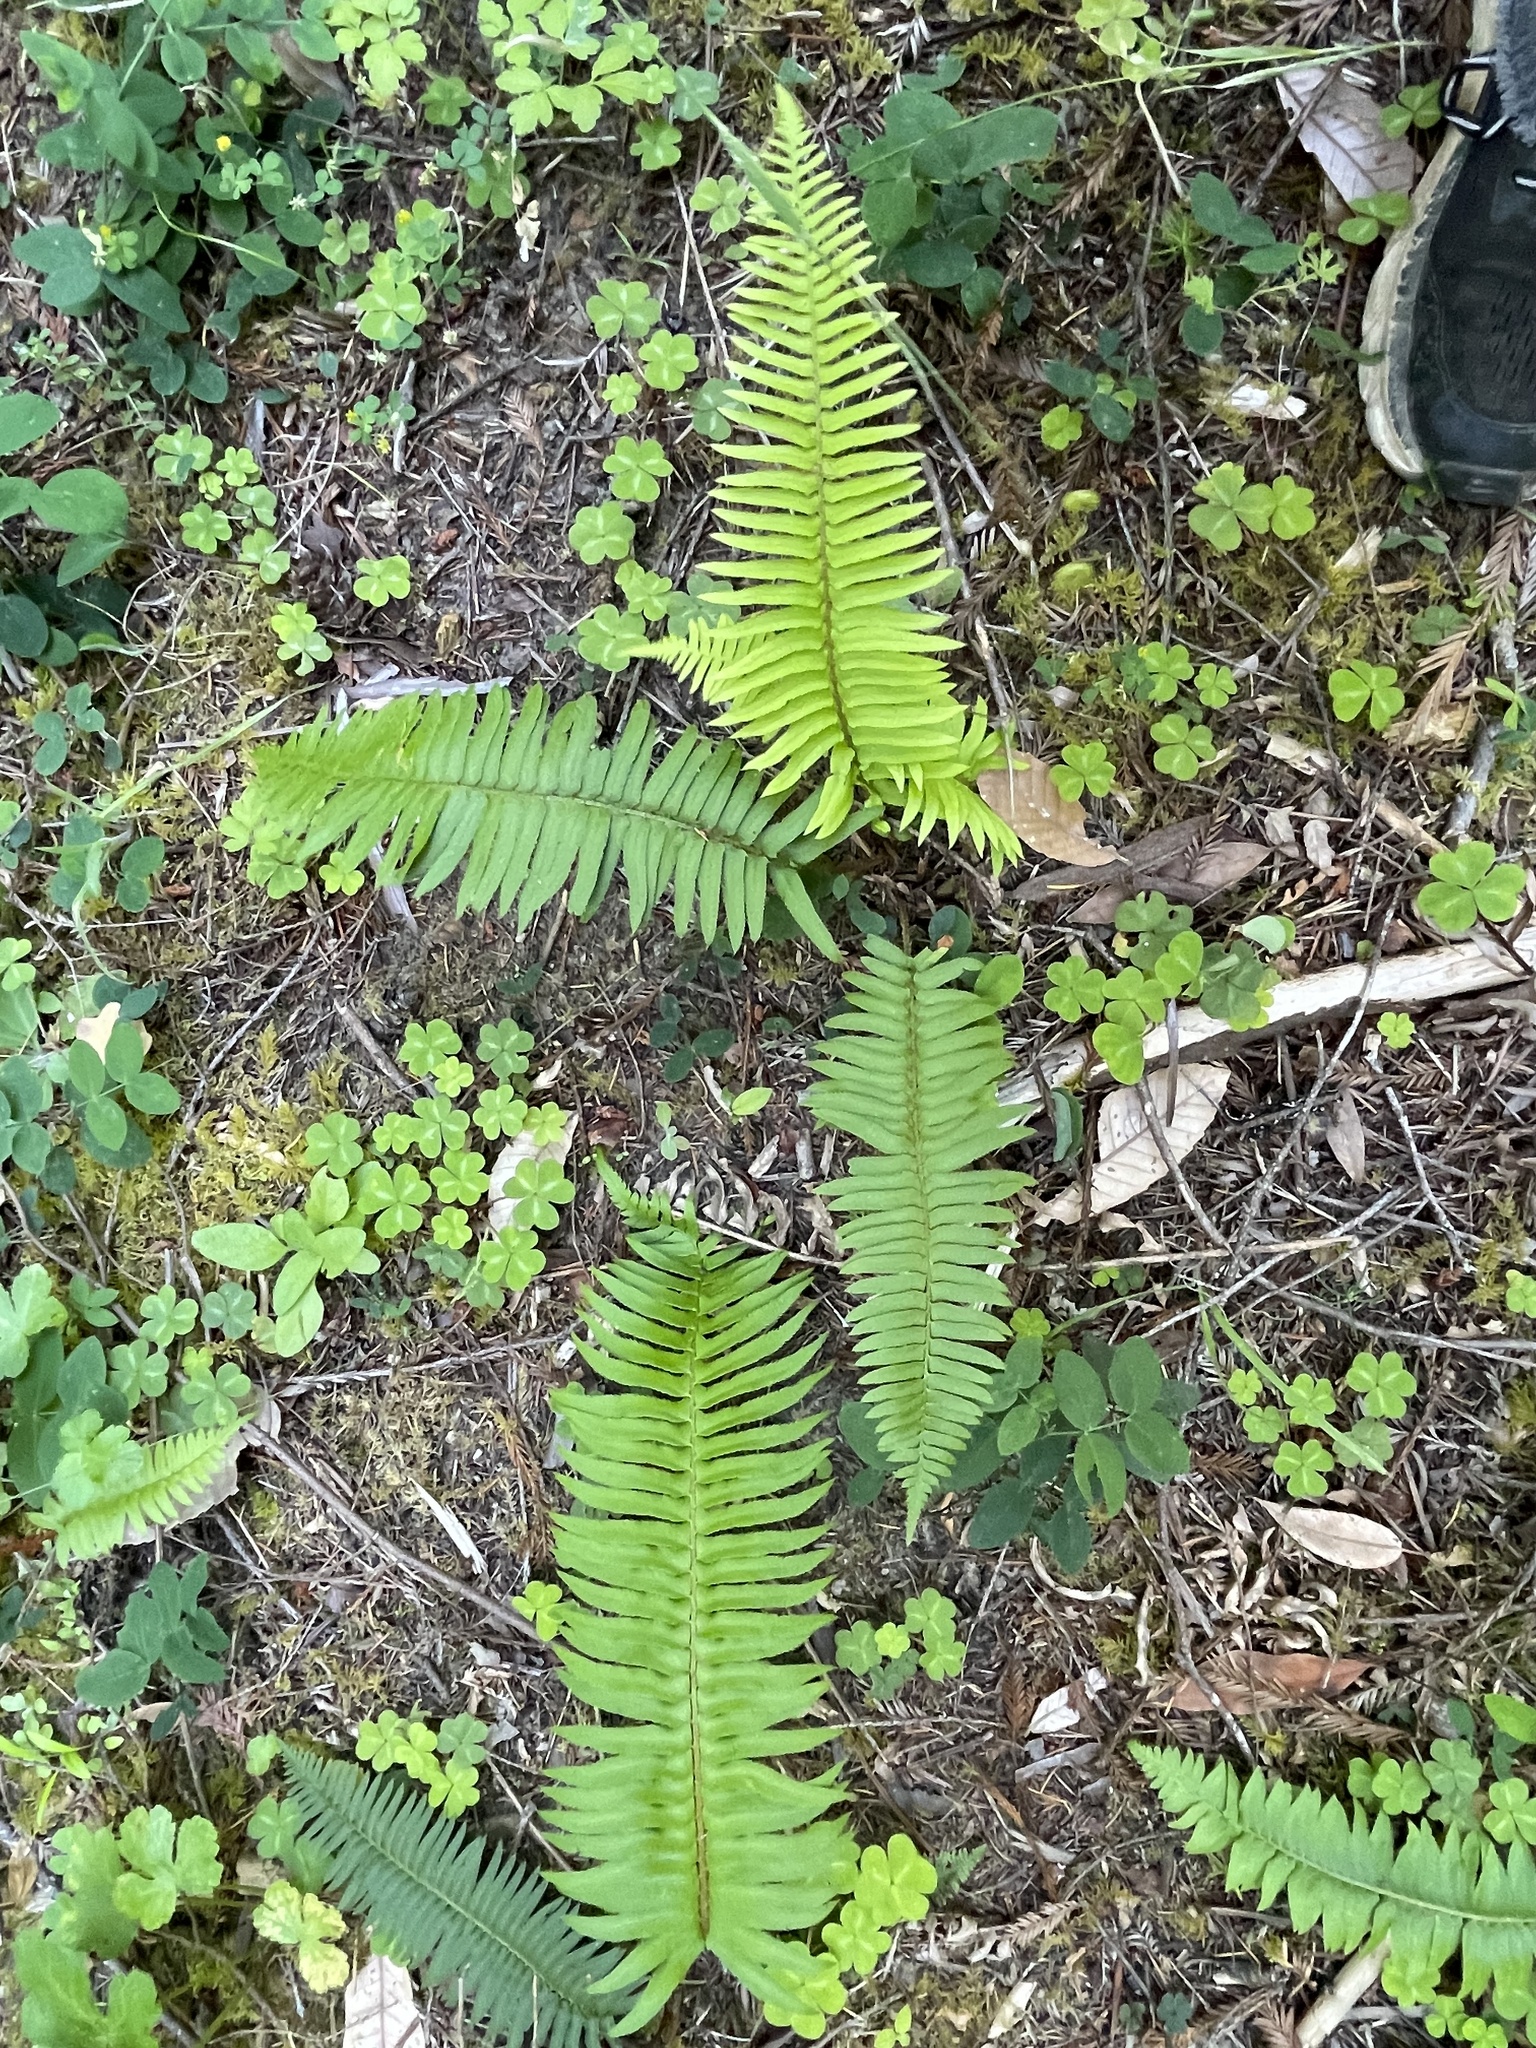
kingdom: Plantae
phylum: Tracheophyta
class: Polypodiopsida
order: Polypodiales
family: Dryopteridaceae
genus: Polystichum
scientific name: Polystichum munitum
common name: Western sword-fern
